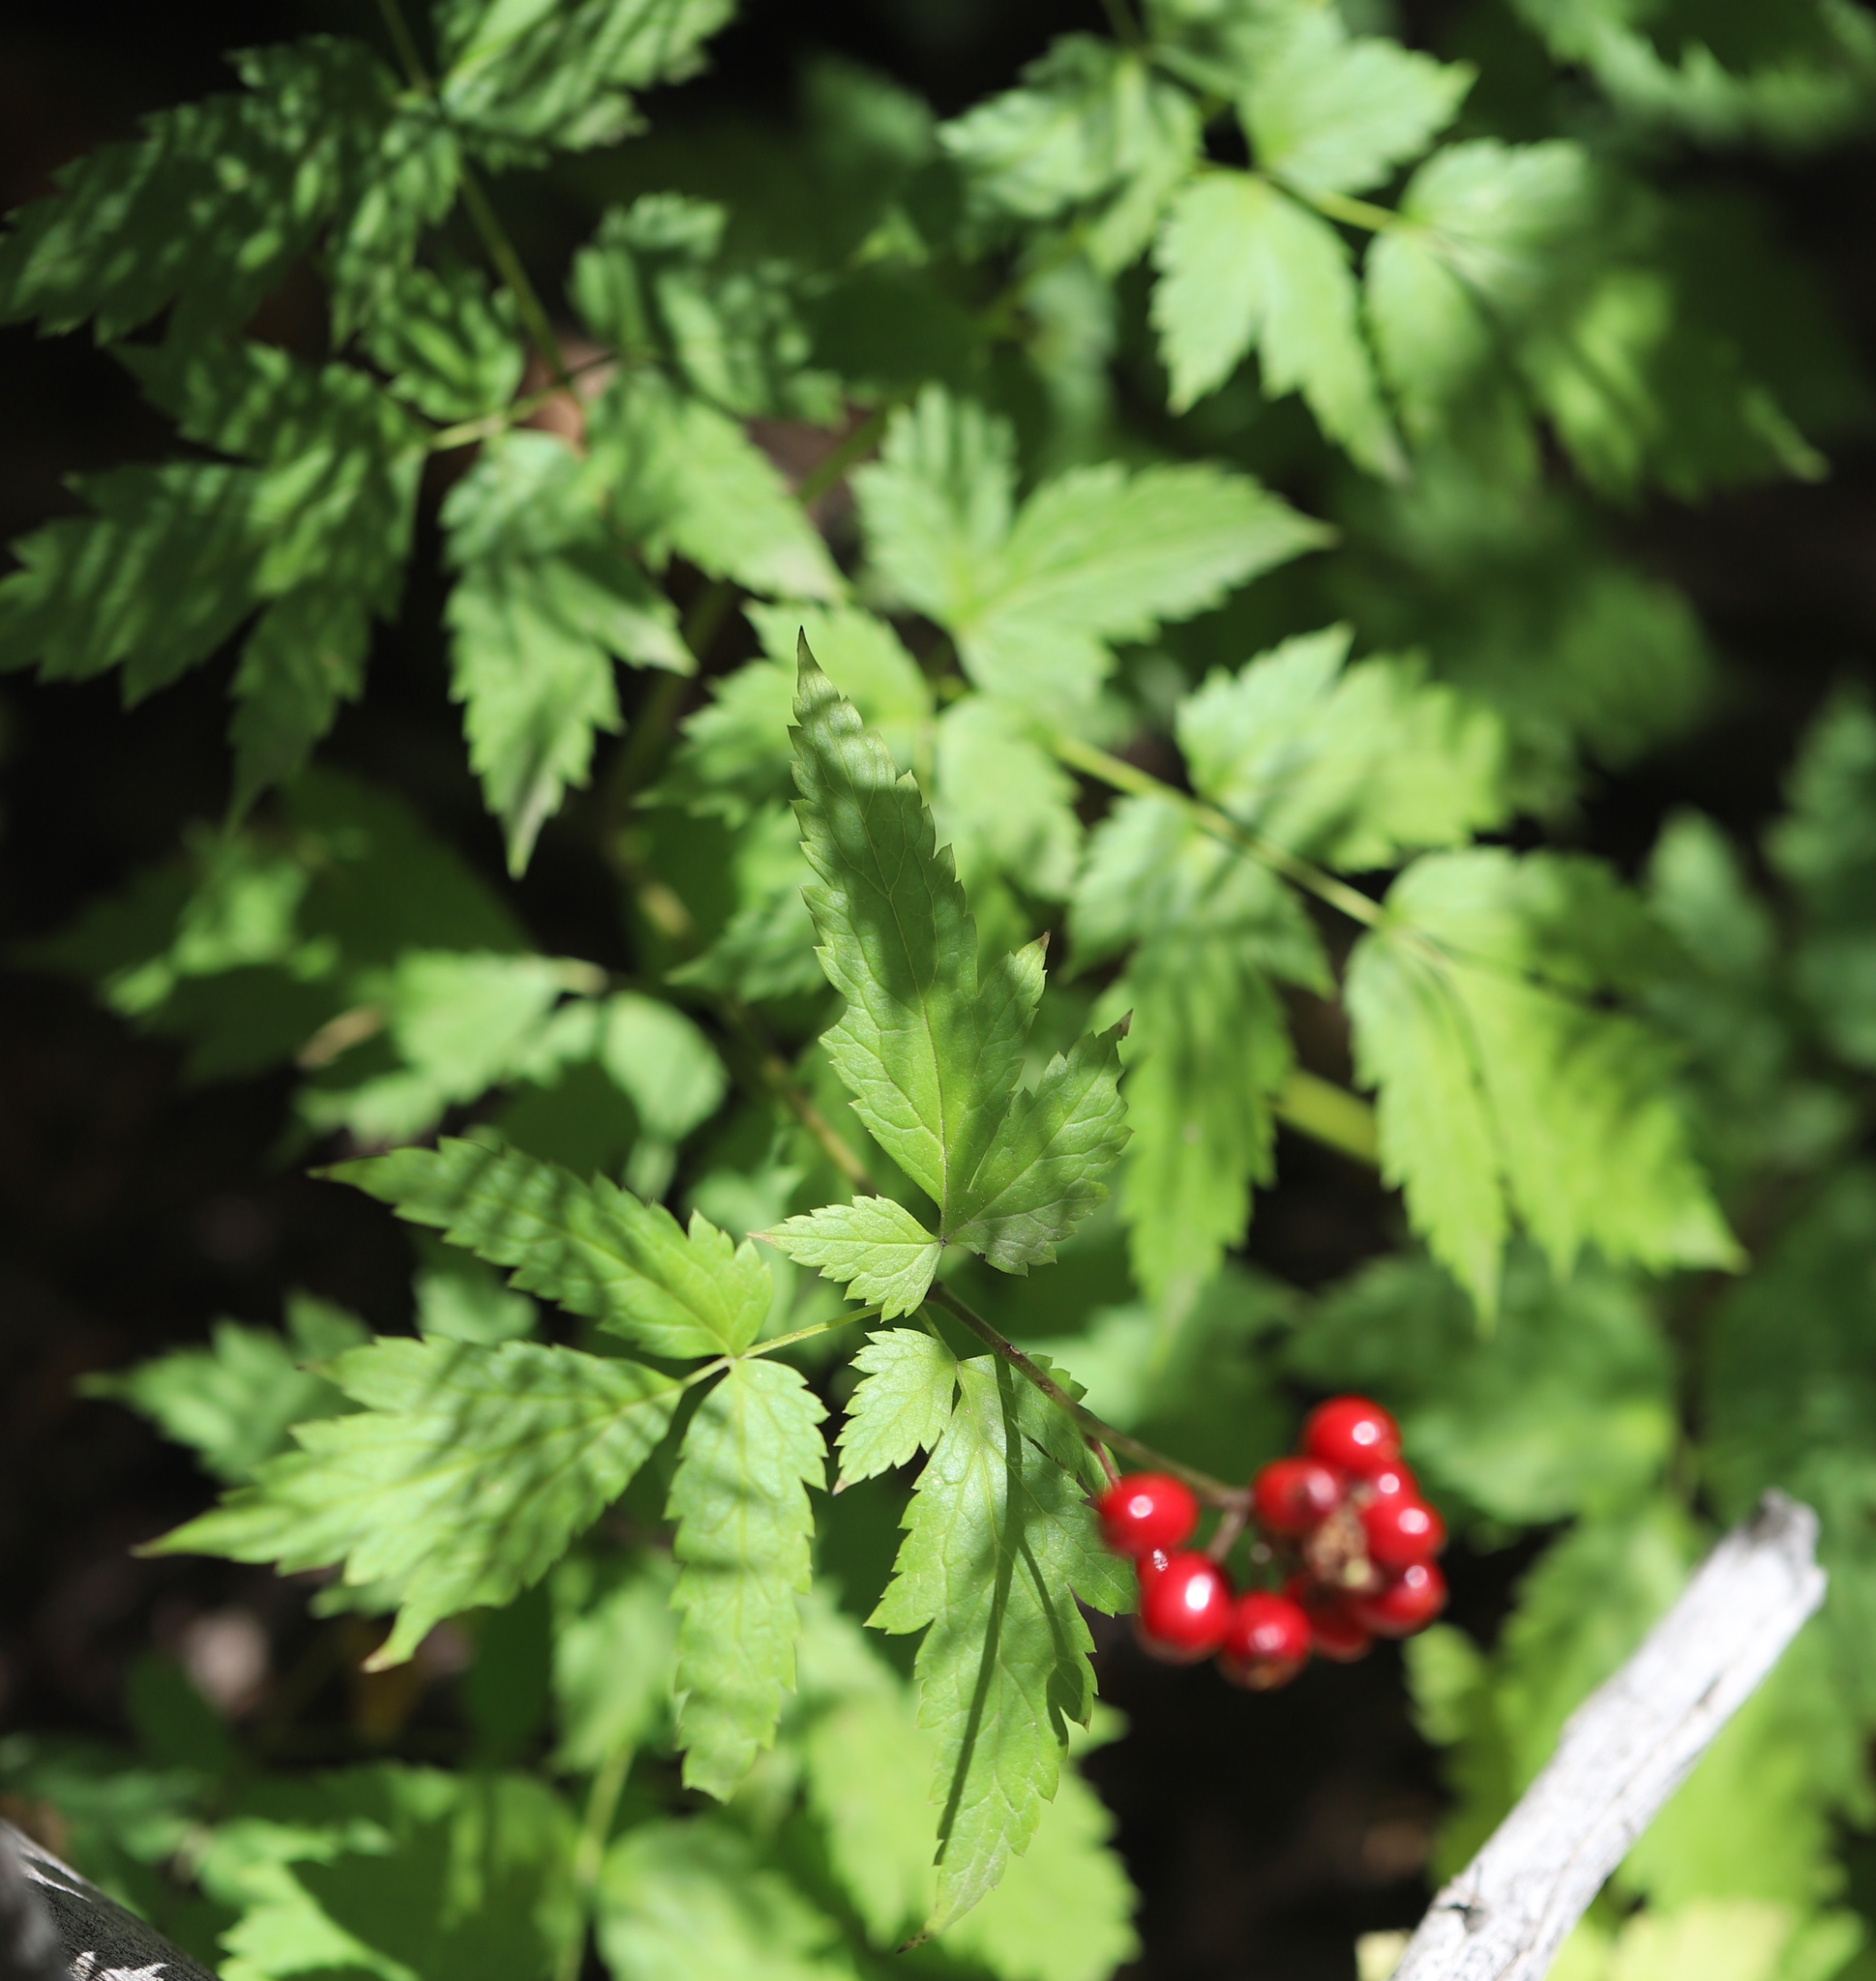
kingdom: Plantae
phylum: Tracheophyta
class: Magnoliopsida
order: Ranunculales
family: Ranunculaceae
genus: Actaea
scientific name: Actaea rubra
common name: Red baneberry
